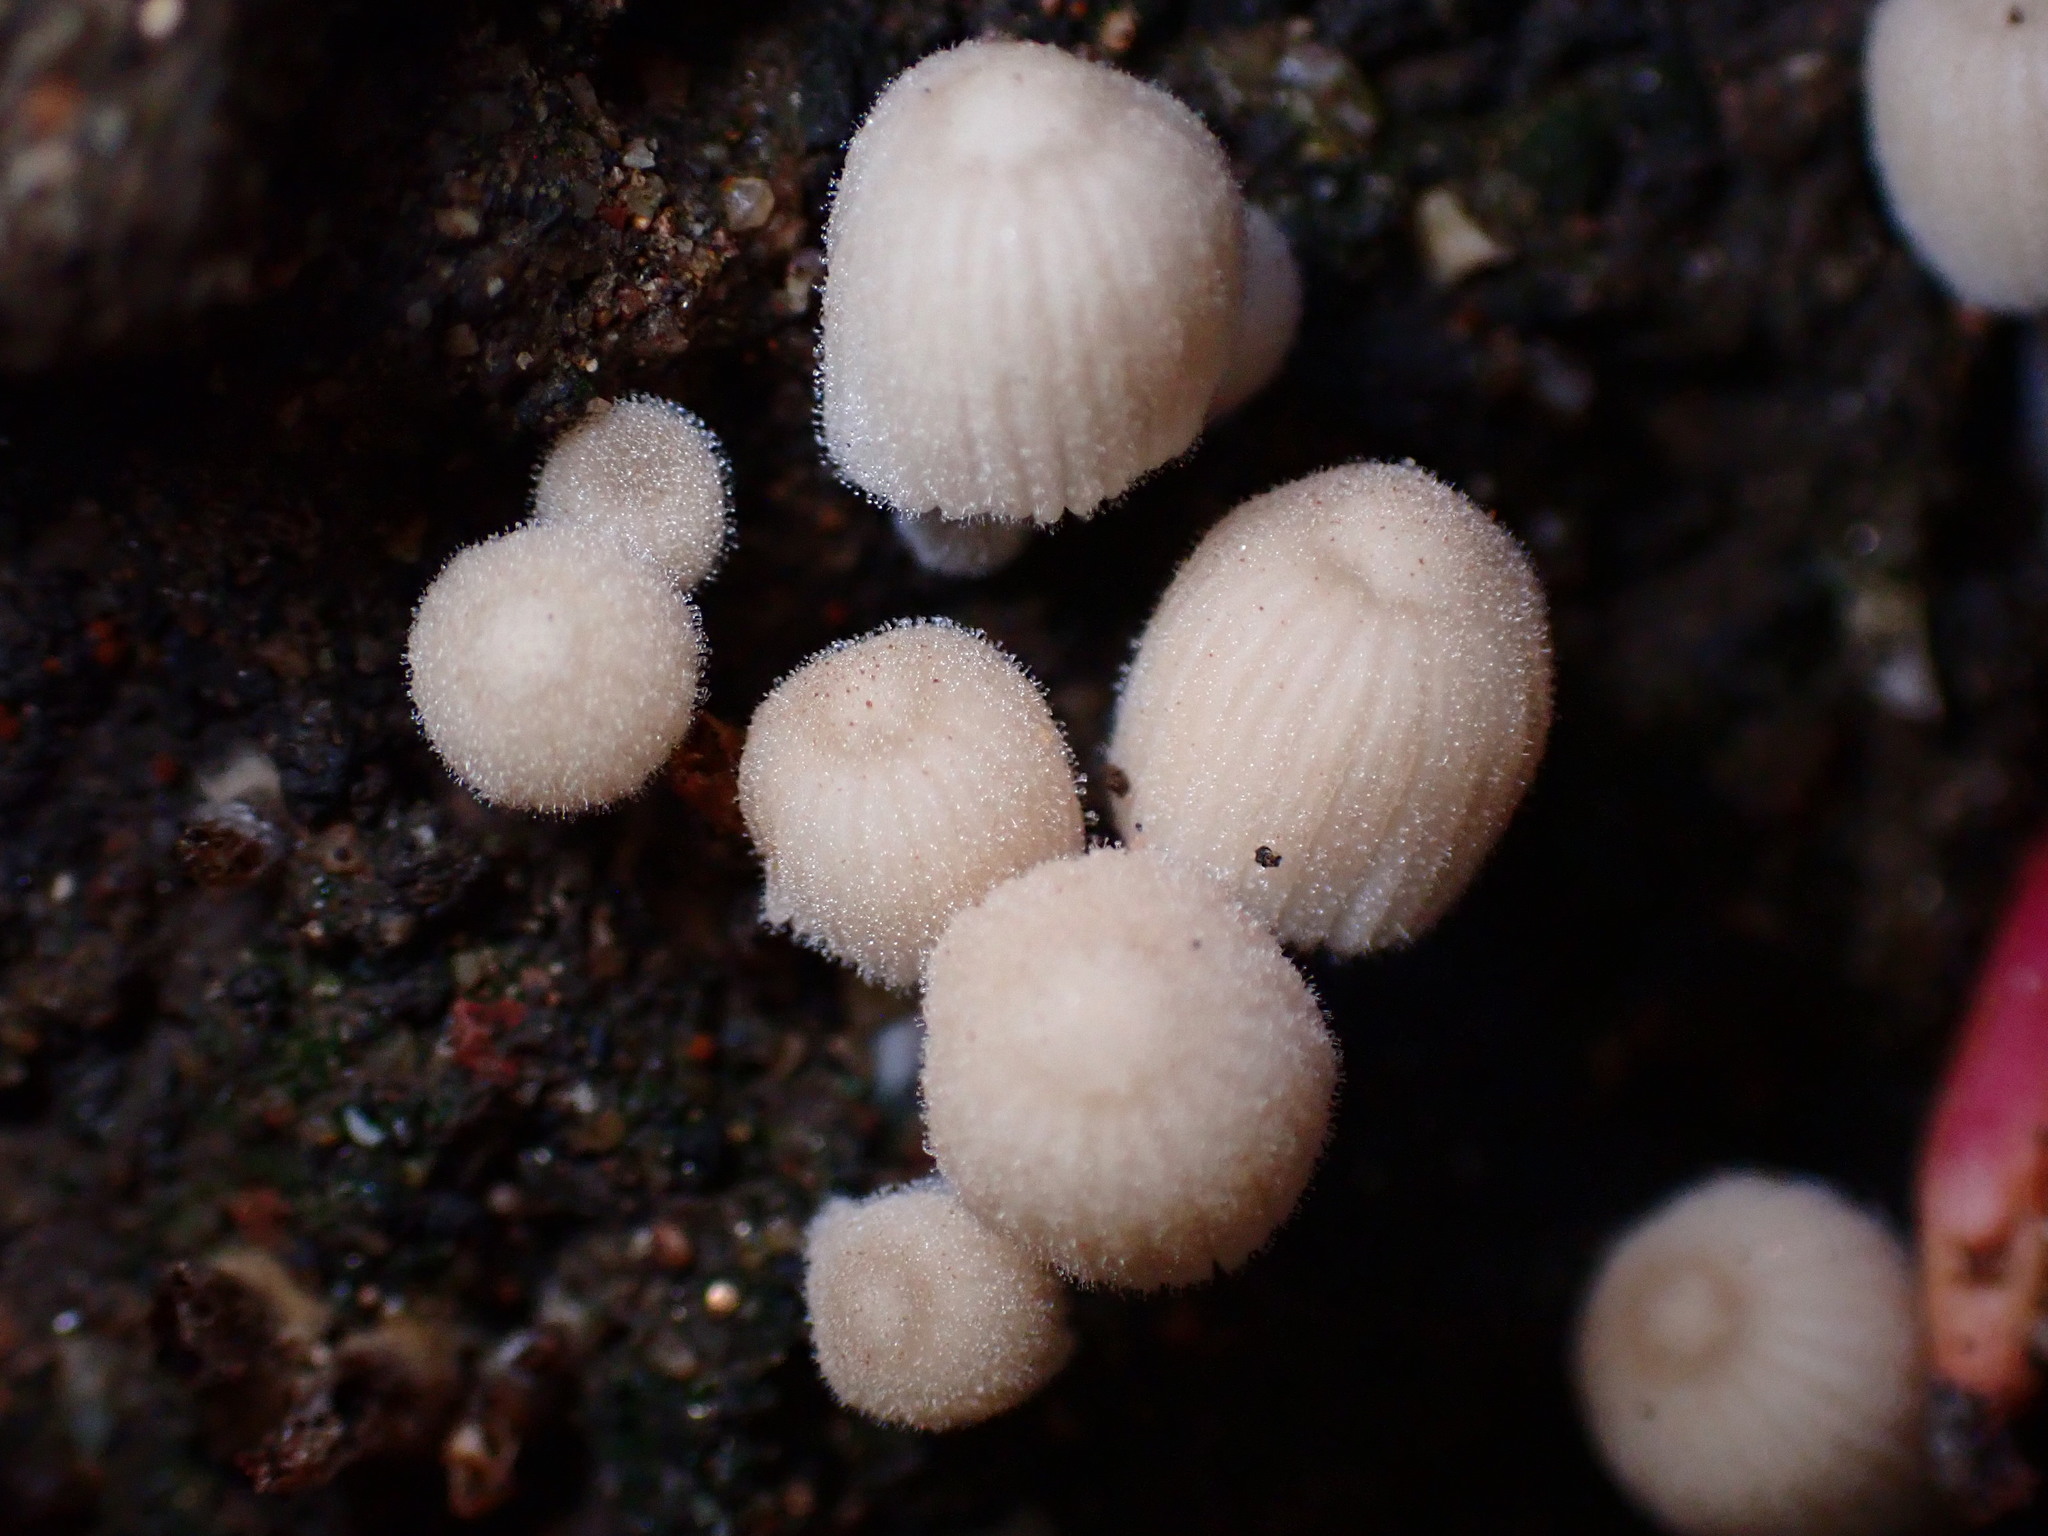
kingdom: Fungi
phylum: Basidiomycota
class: Agaricomycetes
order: Agaricales
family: Psathyrellaceae
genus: Coprinellus
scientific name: Coprinellus disseminatus
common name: Fairies' bonnets
